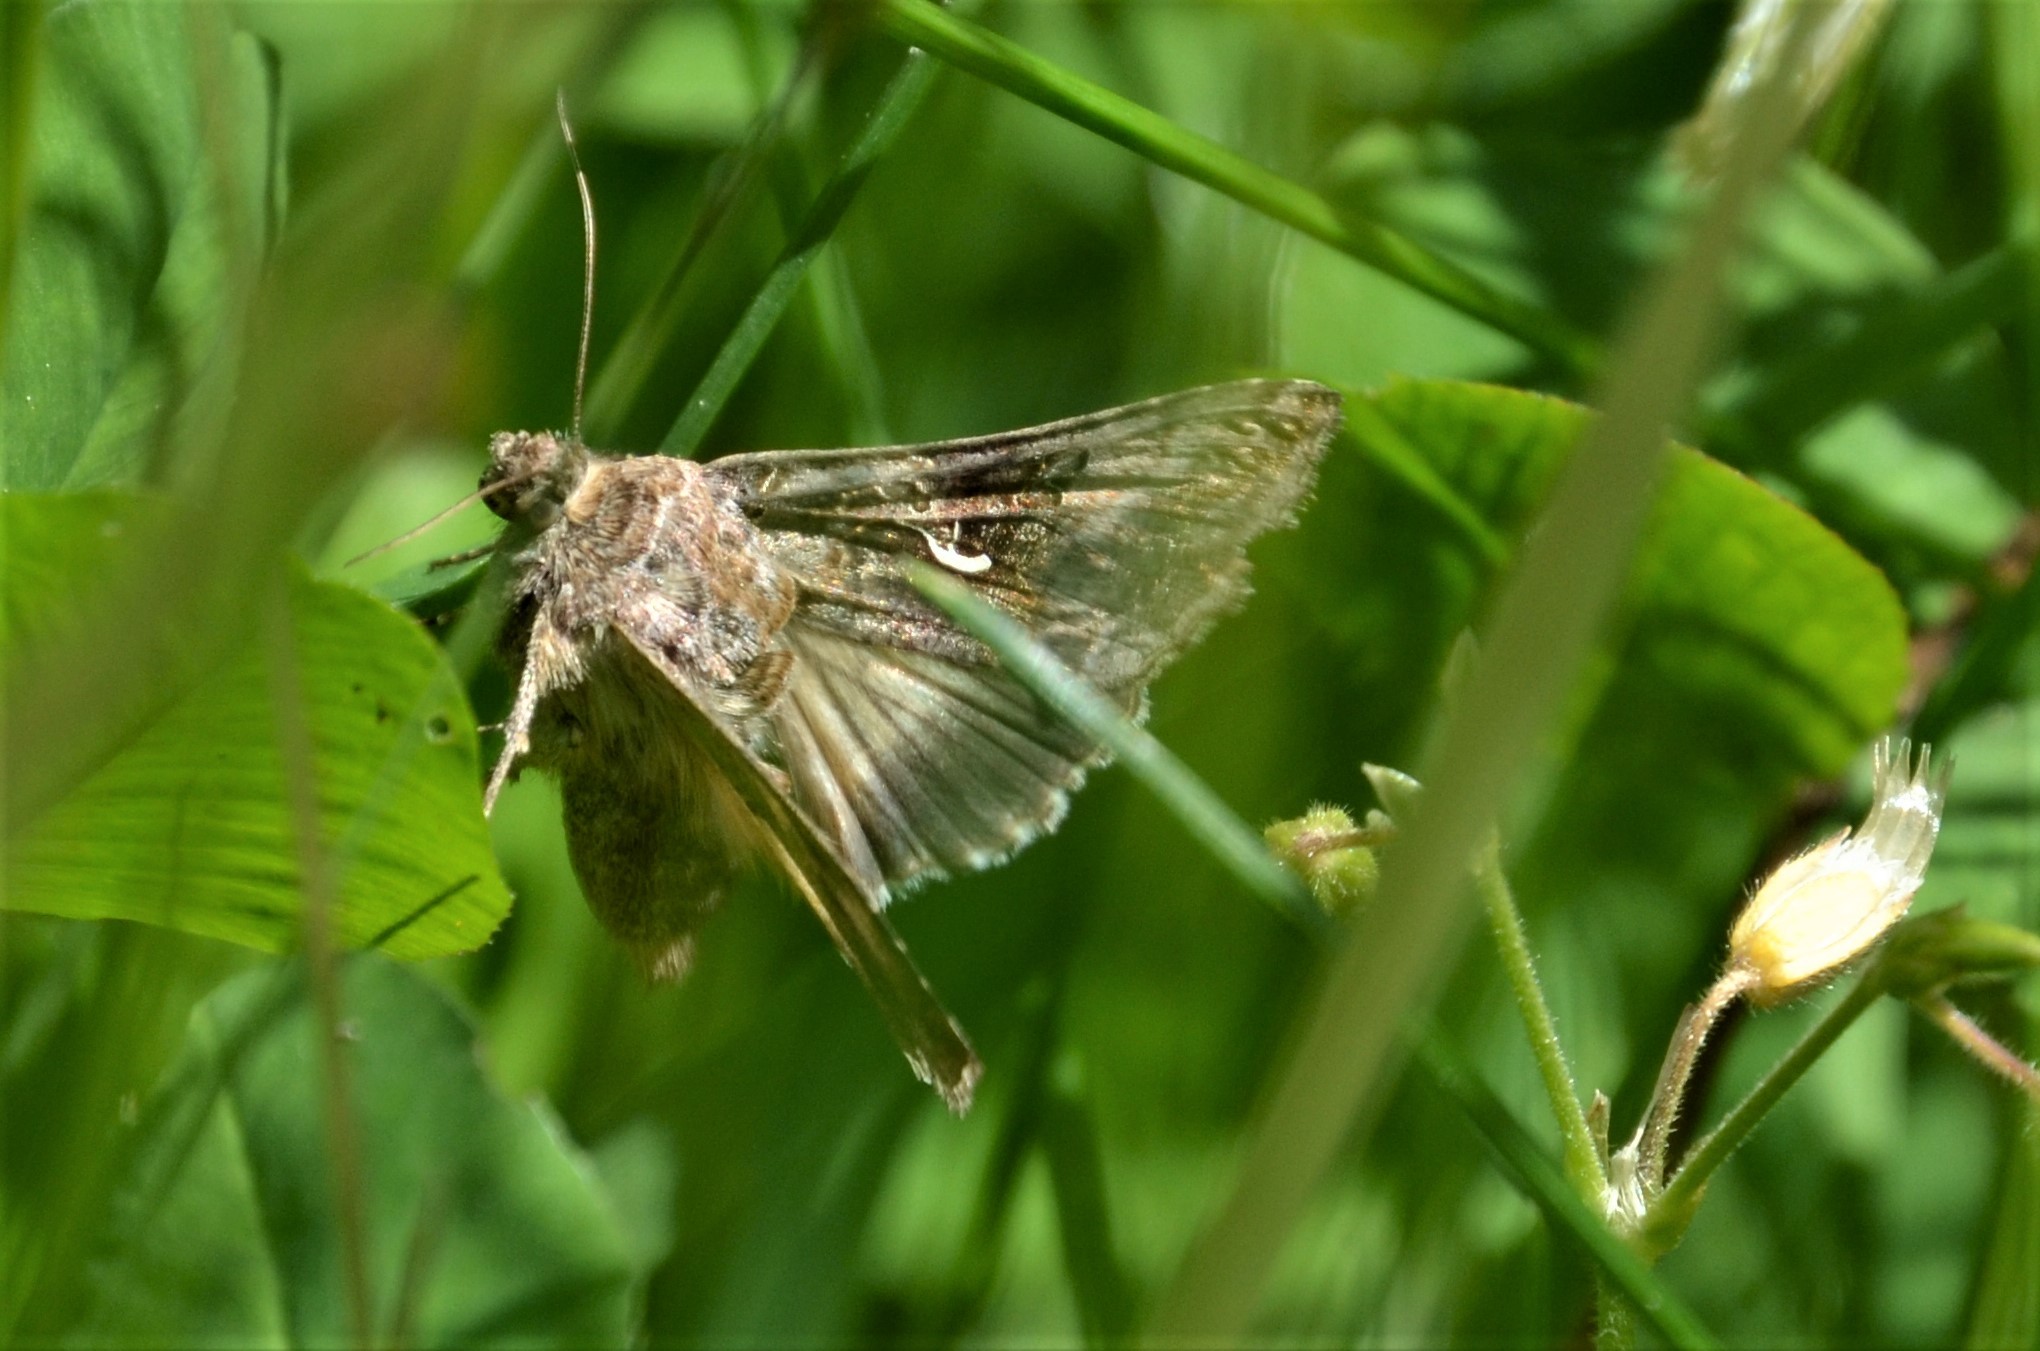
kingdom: Animalia
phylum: Arthropoda
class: Insecta
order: Lepidoptera
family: Noctuidae
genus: Autographa
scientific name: Autographa gamma
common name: Silver y
